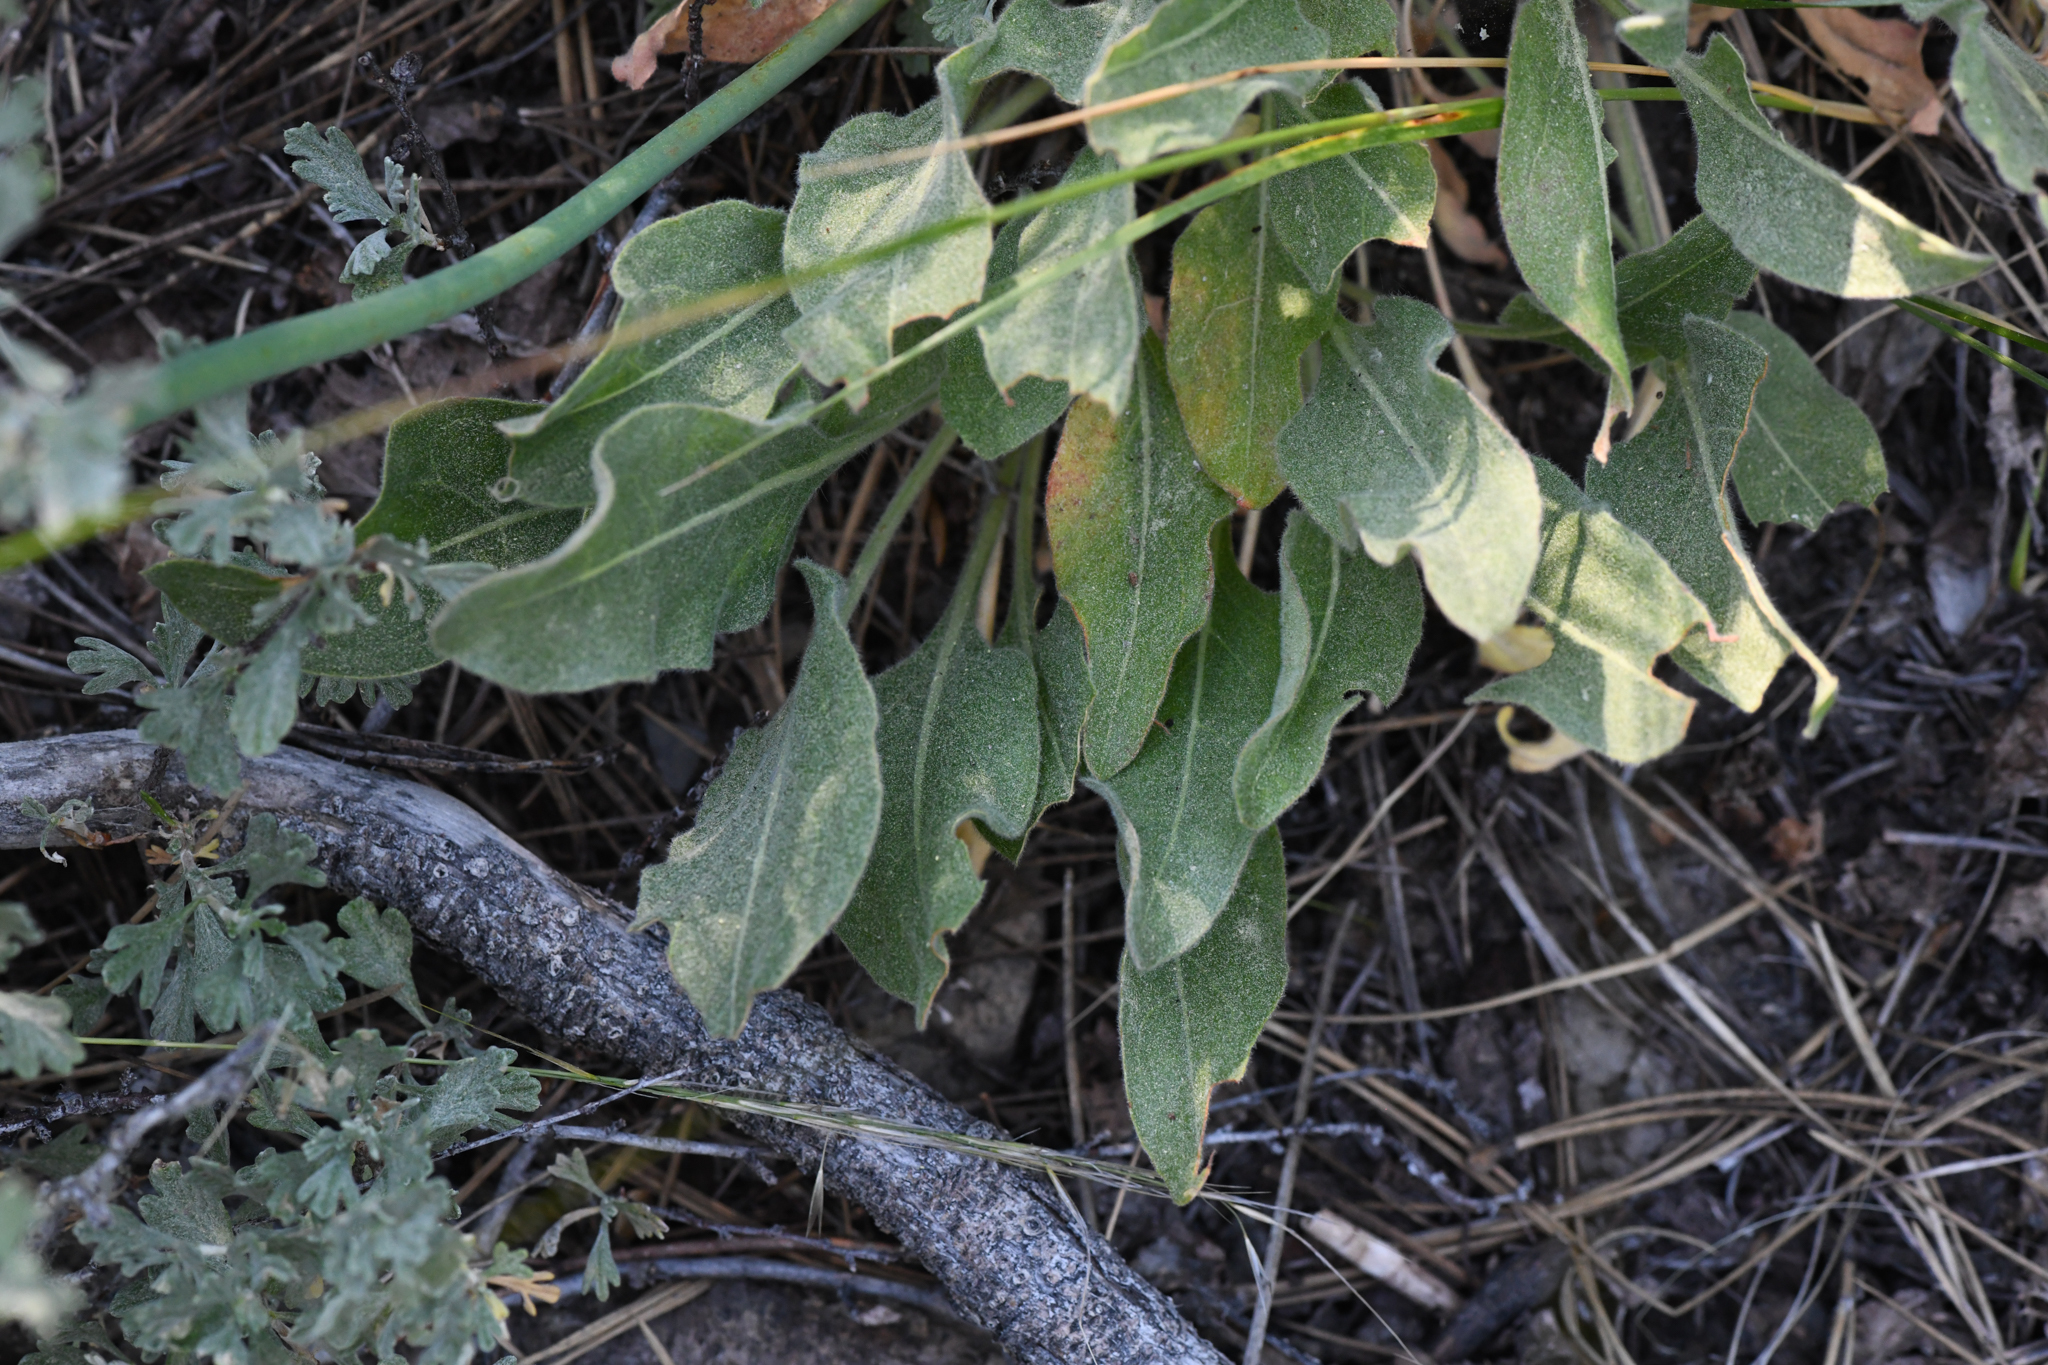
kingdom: Plantae
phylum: Tracheophyta
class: Magnoliopsida
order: Caryophyllales
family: Polygonaceae
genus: Eriogonum
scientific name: Eriogonum elatum
